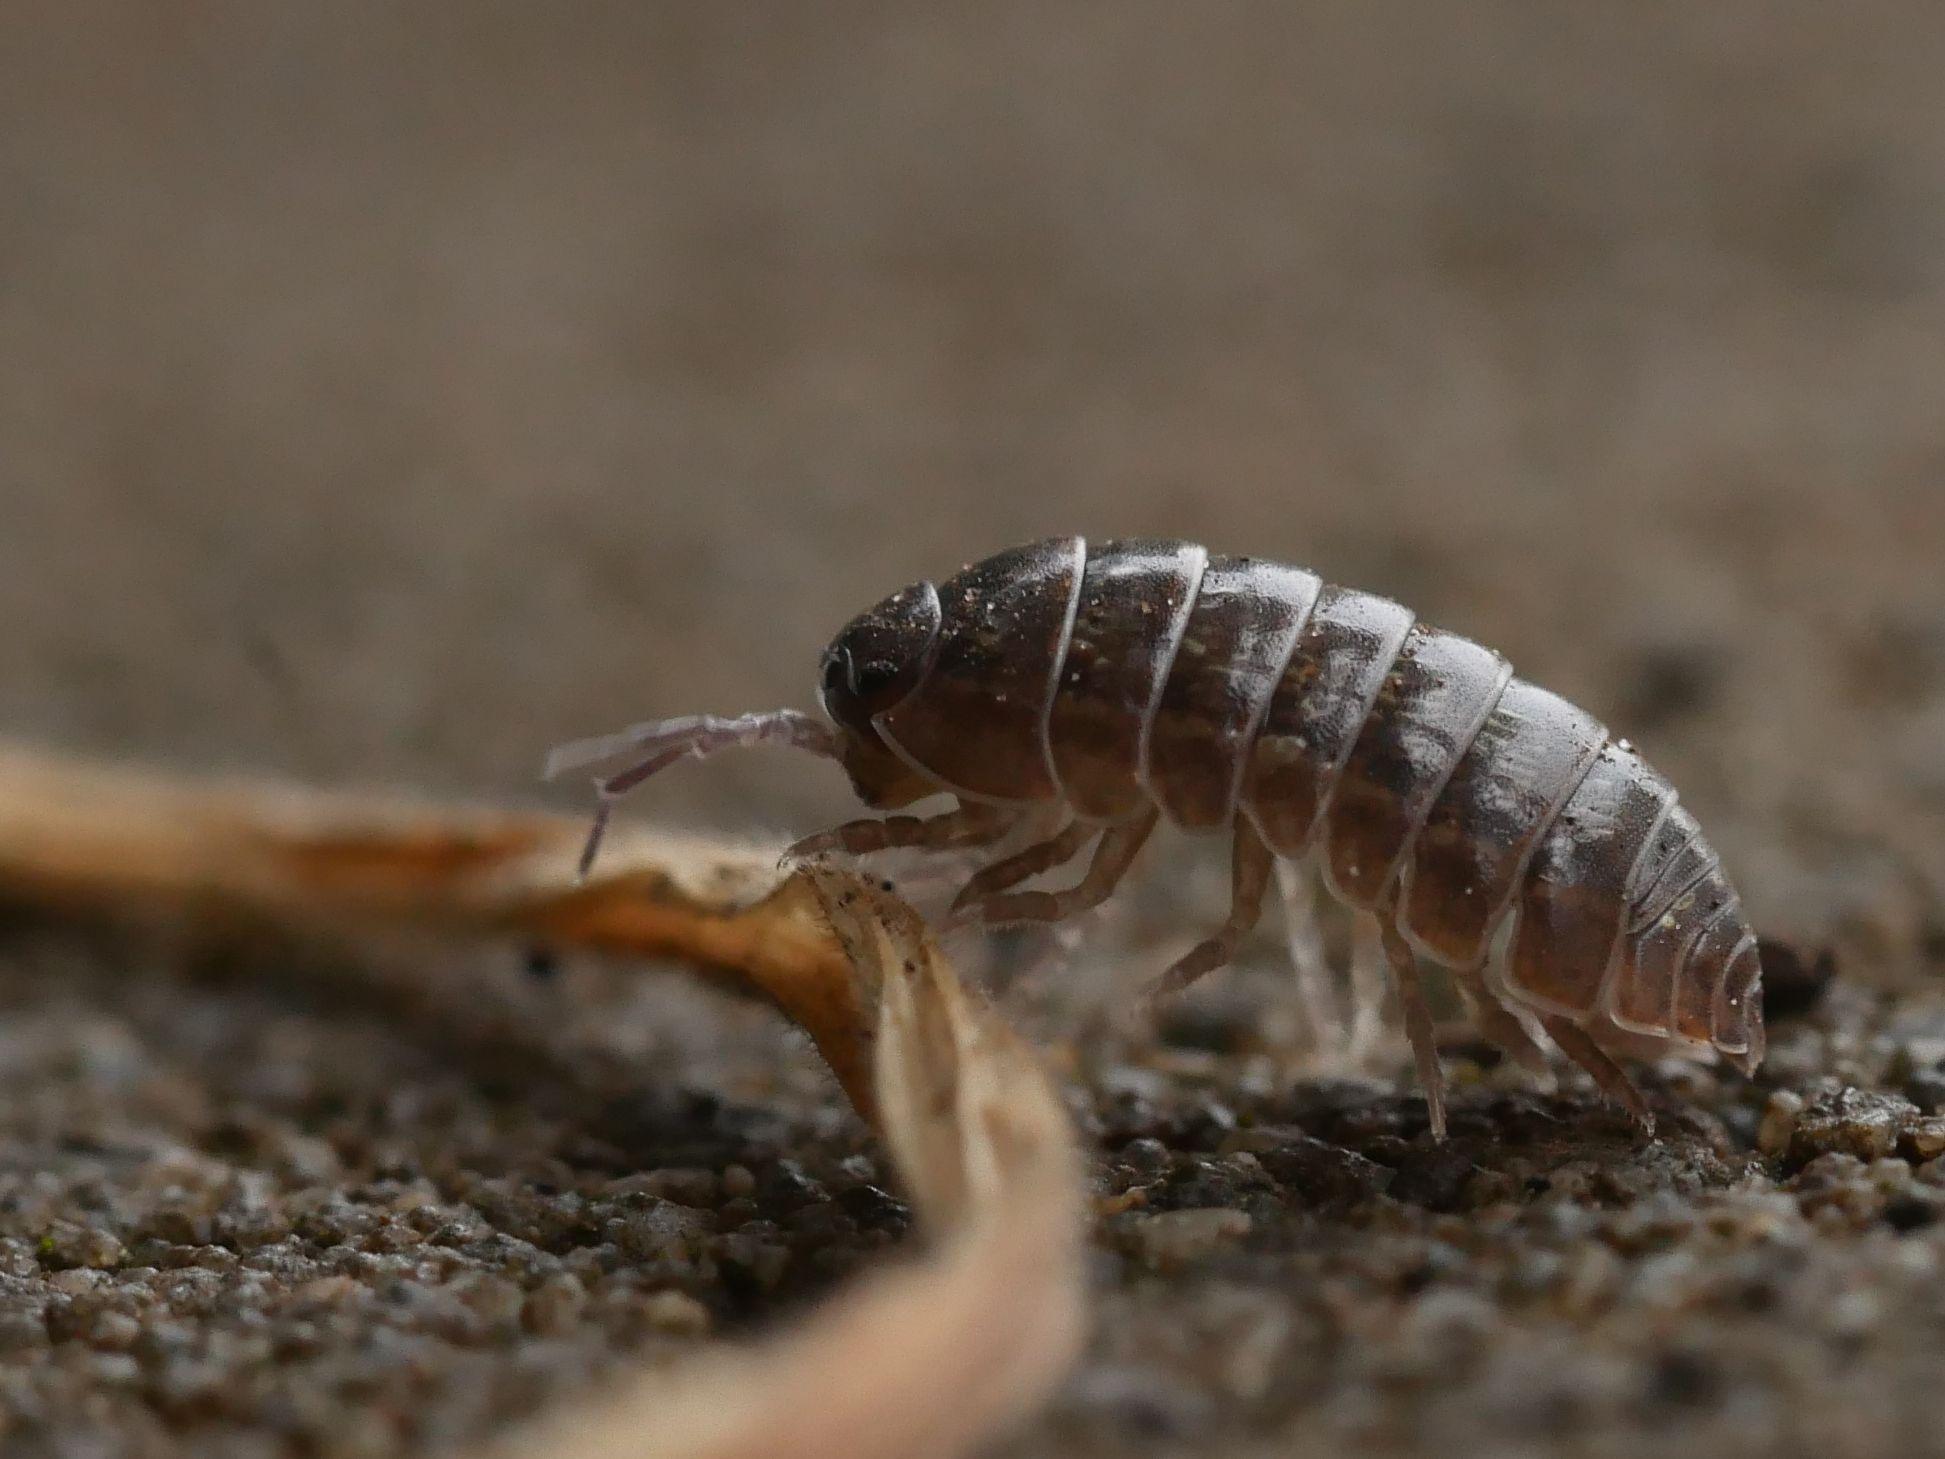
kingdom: Animalia
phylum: Arthropoda
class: Malacostraca
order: Isopoda
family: Armadillidiidae
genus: Armadillidium
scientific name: Armadillidium vulgare
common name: Common pill woodlouse
